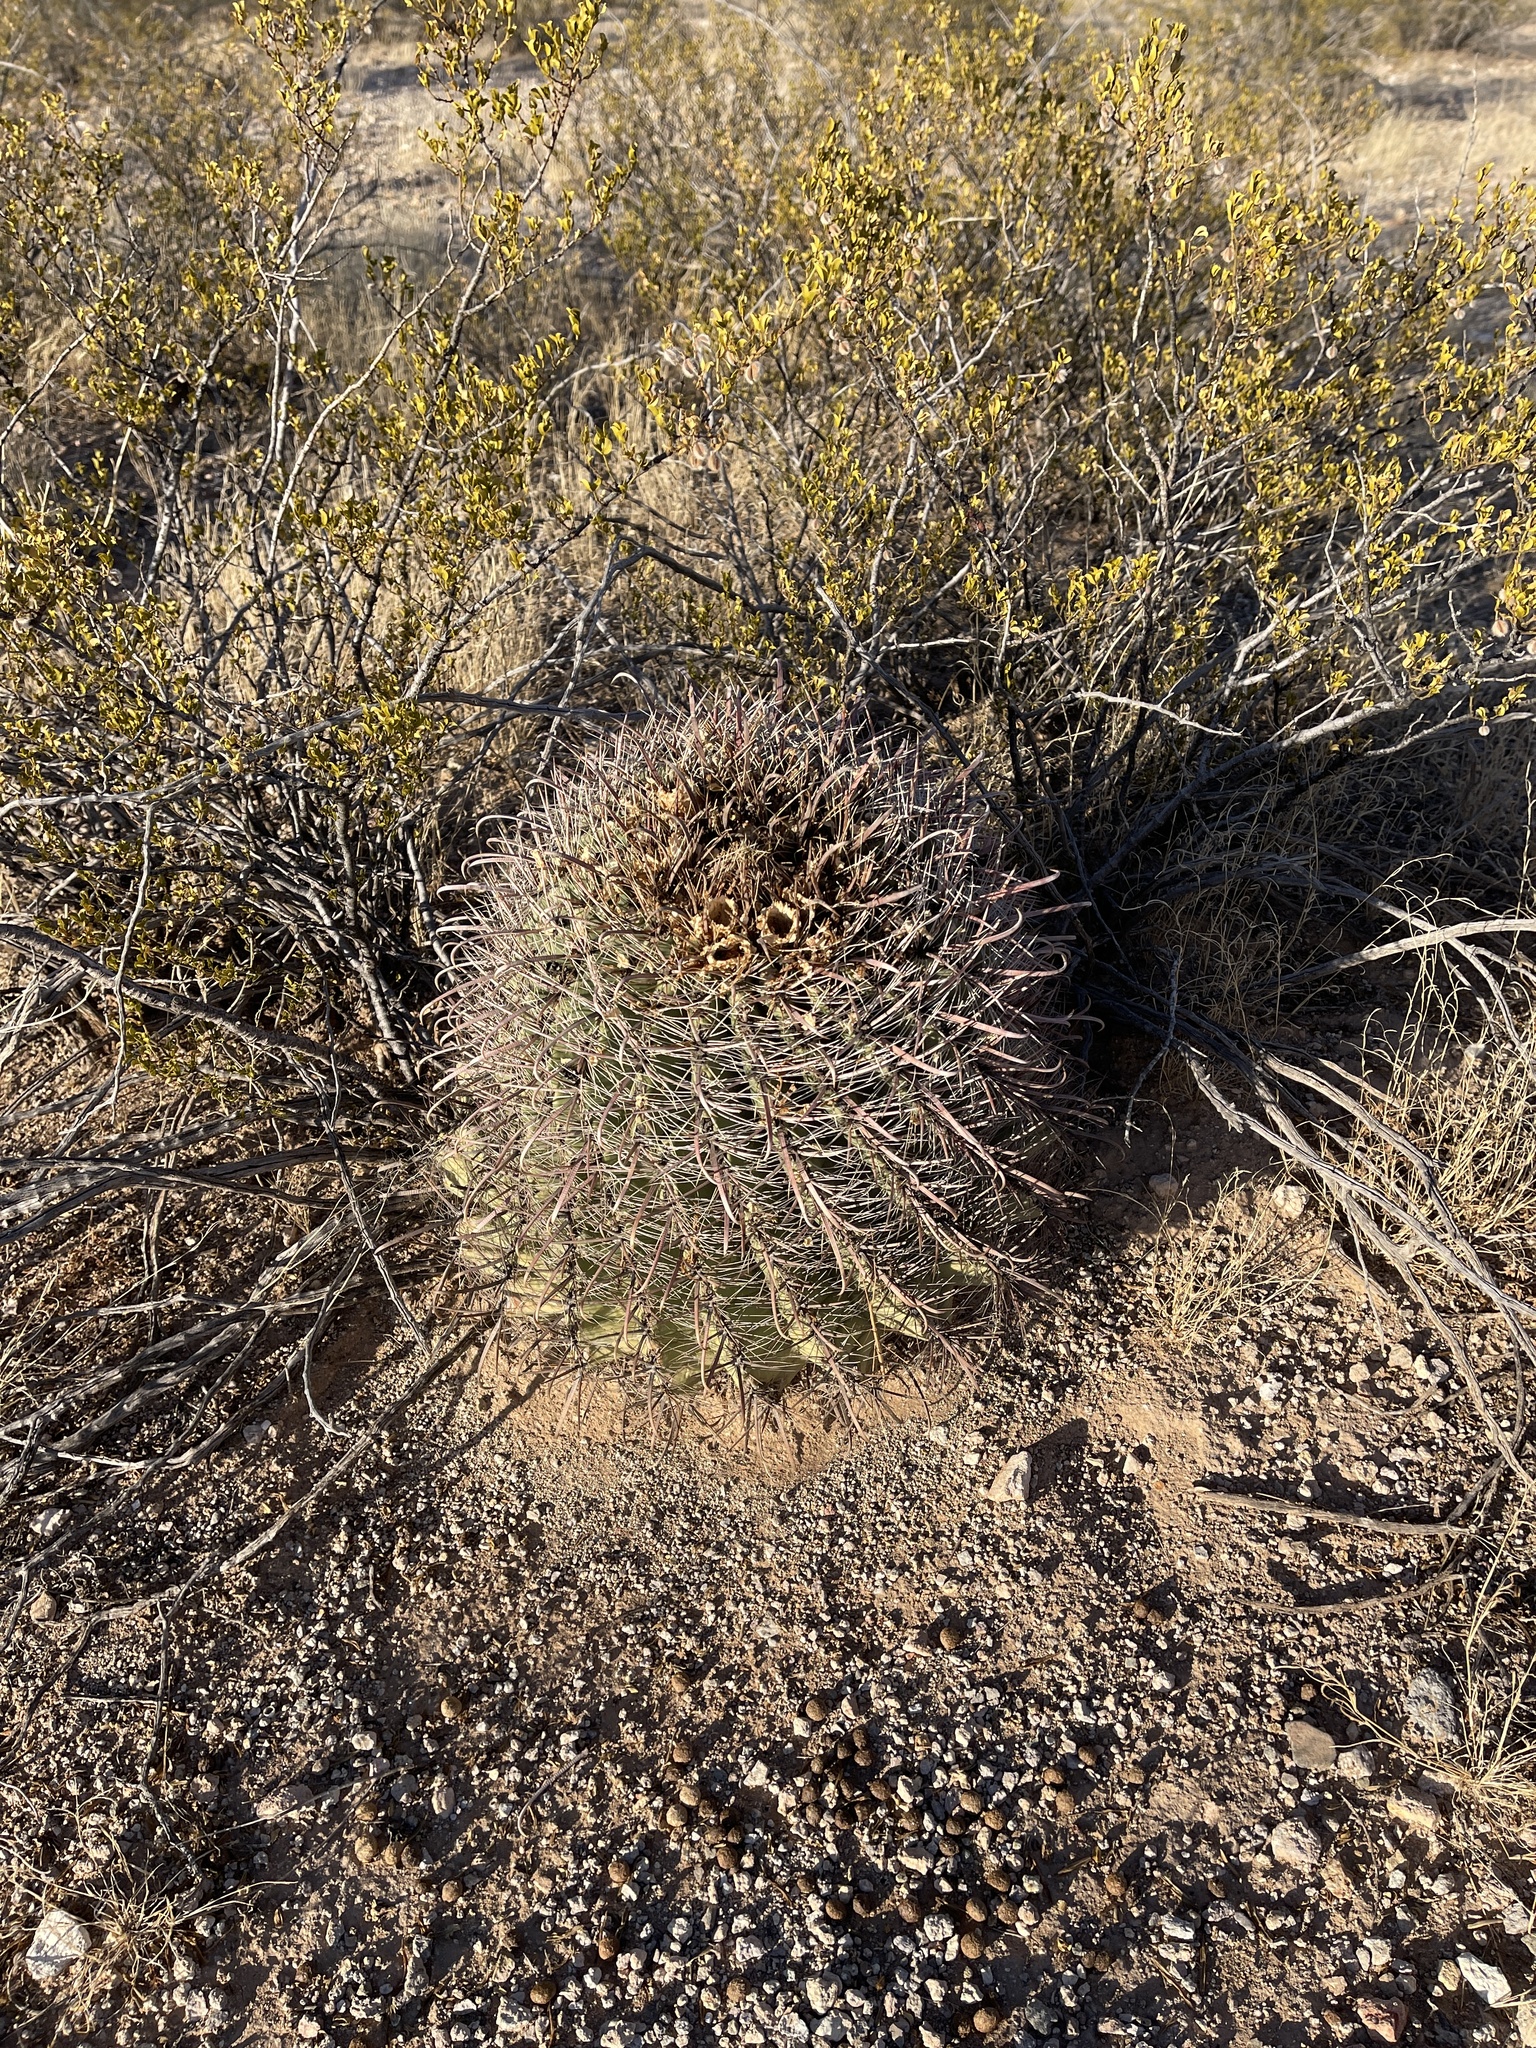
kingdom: Plantae
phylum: Tracheophyta
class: Magnoliopsida
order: Caryophyllales
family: Cactaceae
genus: Ferocactus
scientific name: Ferocactus wislizeni
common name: Candy barrel cactus
